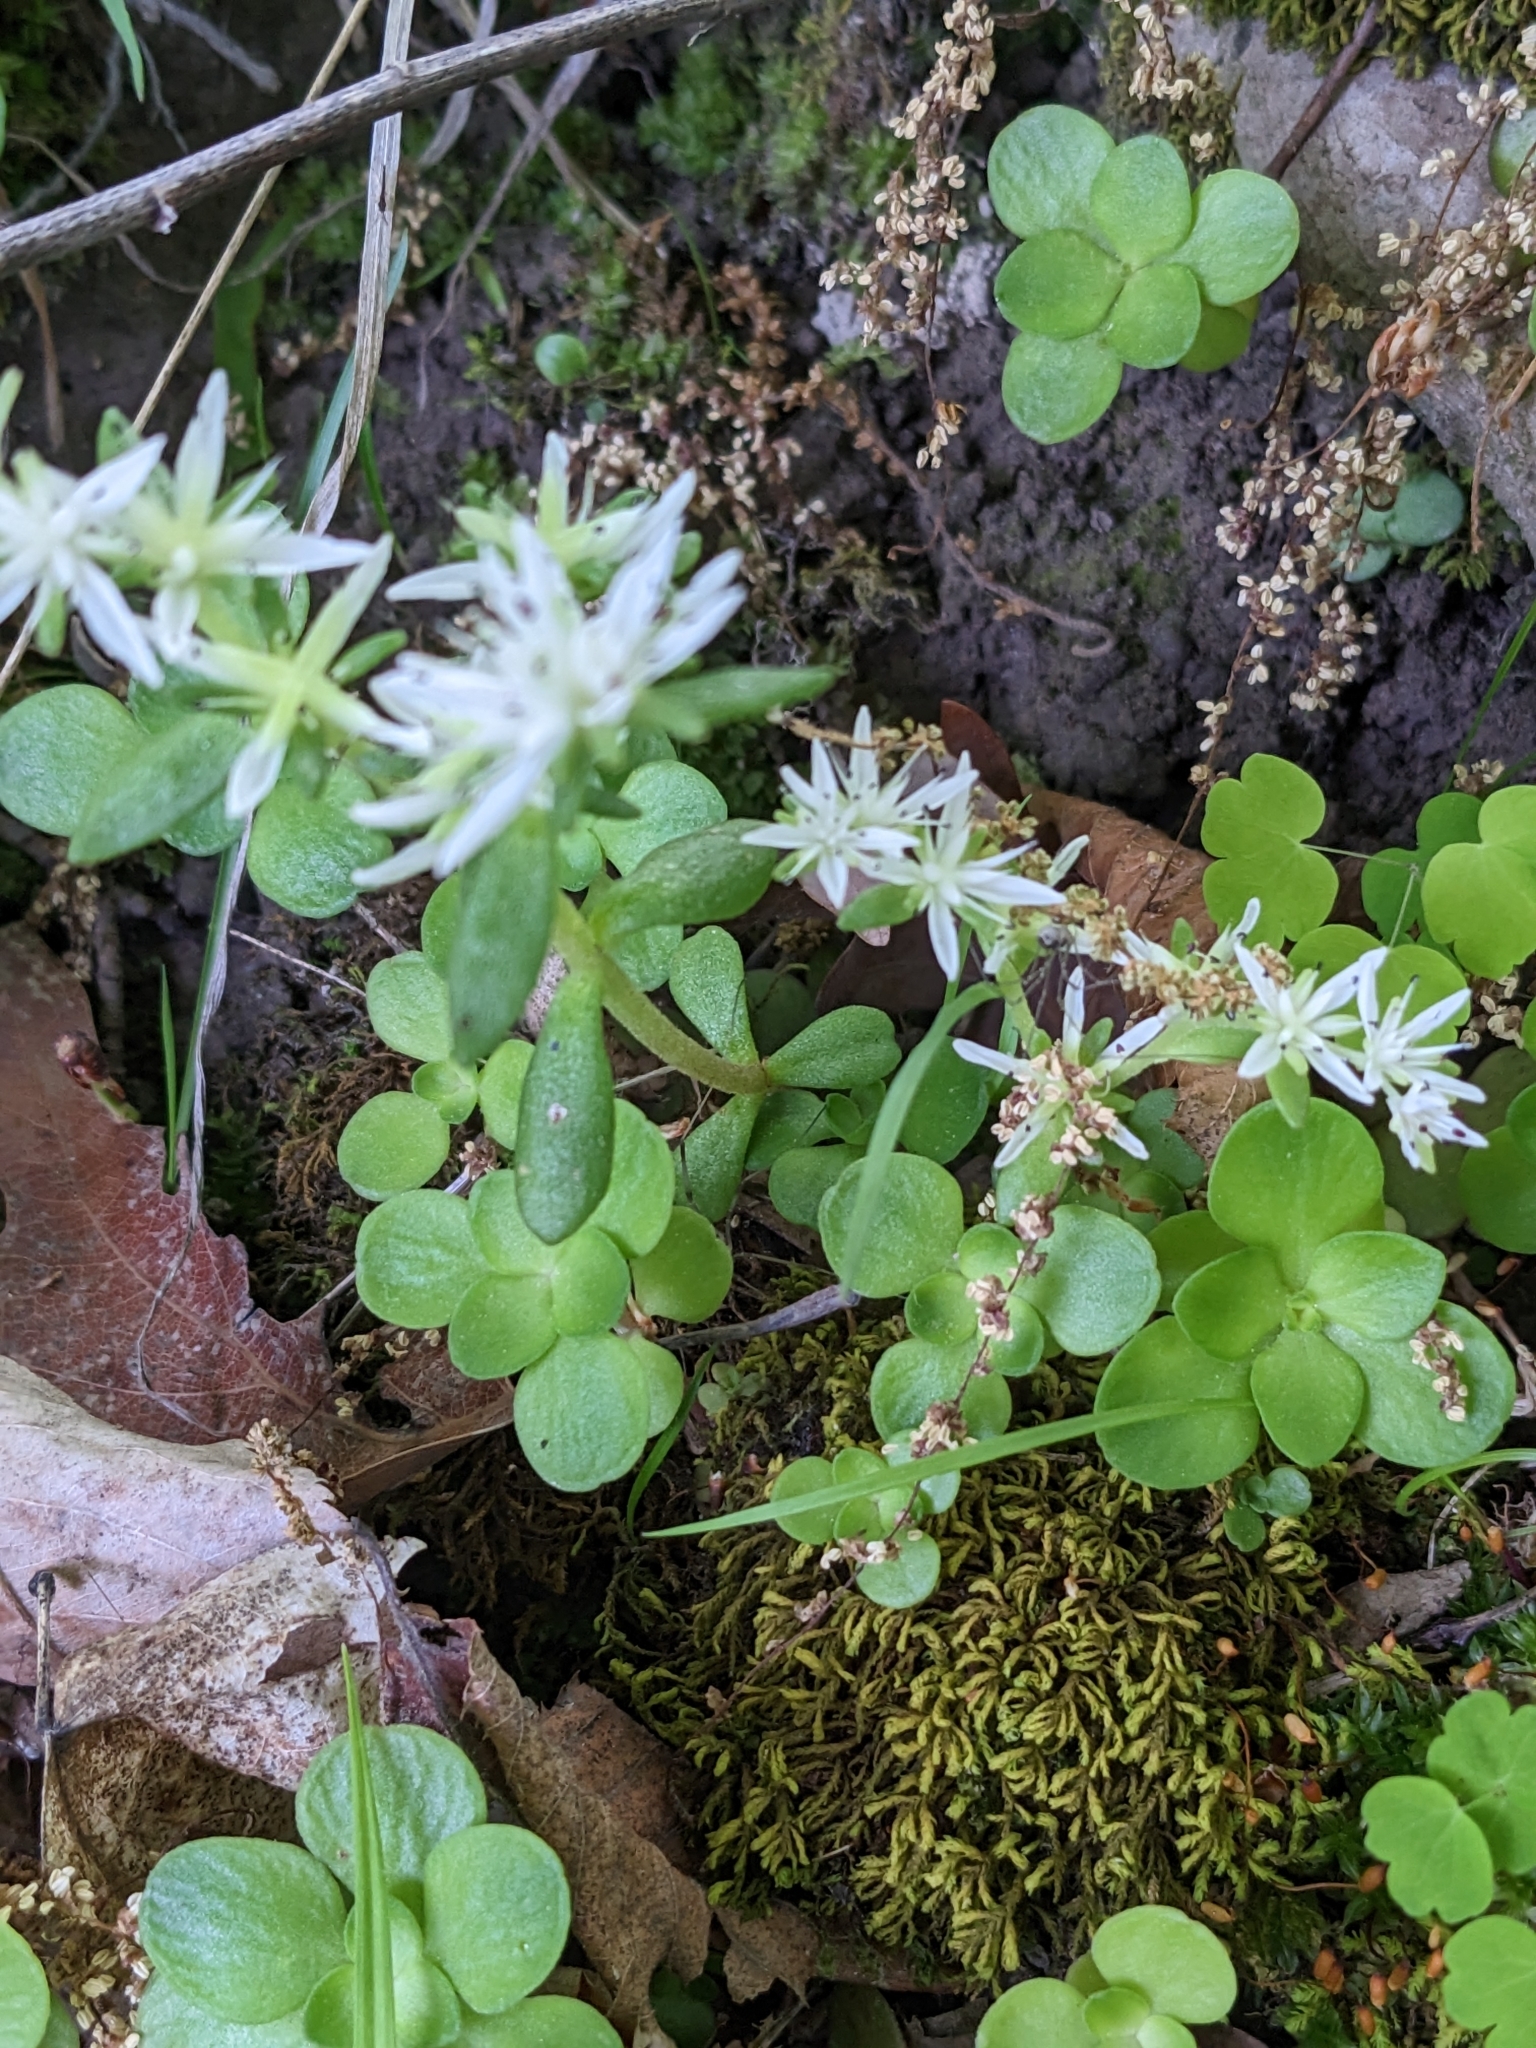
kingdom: Plantae
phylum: Tracheophyta
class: Magnoliopsida
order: Saxifragales
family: Crassulaceae
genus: Sedum
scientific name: Sedum ternatum
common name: Wild stonecrop
